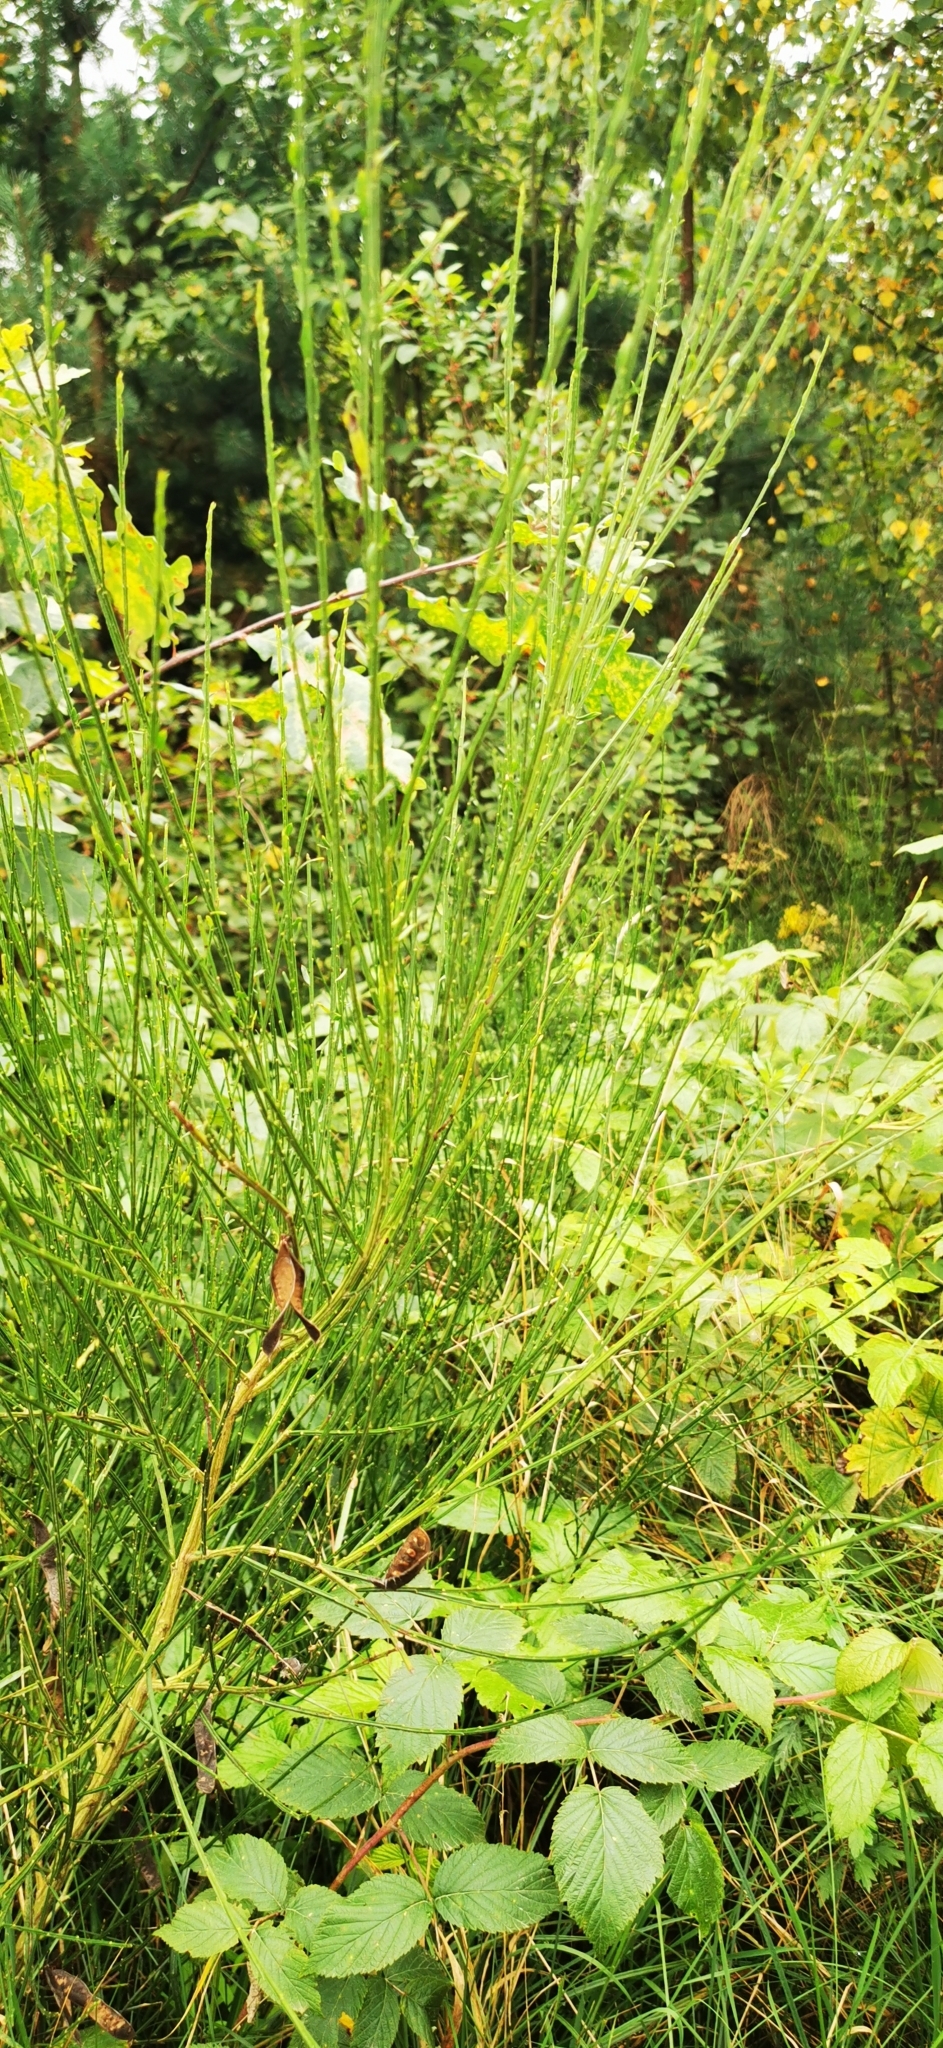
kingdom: Plantae
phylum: Tracheophyta
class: Magnoliopsida
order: Fabales
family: Fabaceae
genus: Cytisus
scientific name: Cytisus scoparius
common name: Scotch broom
